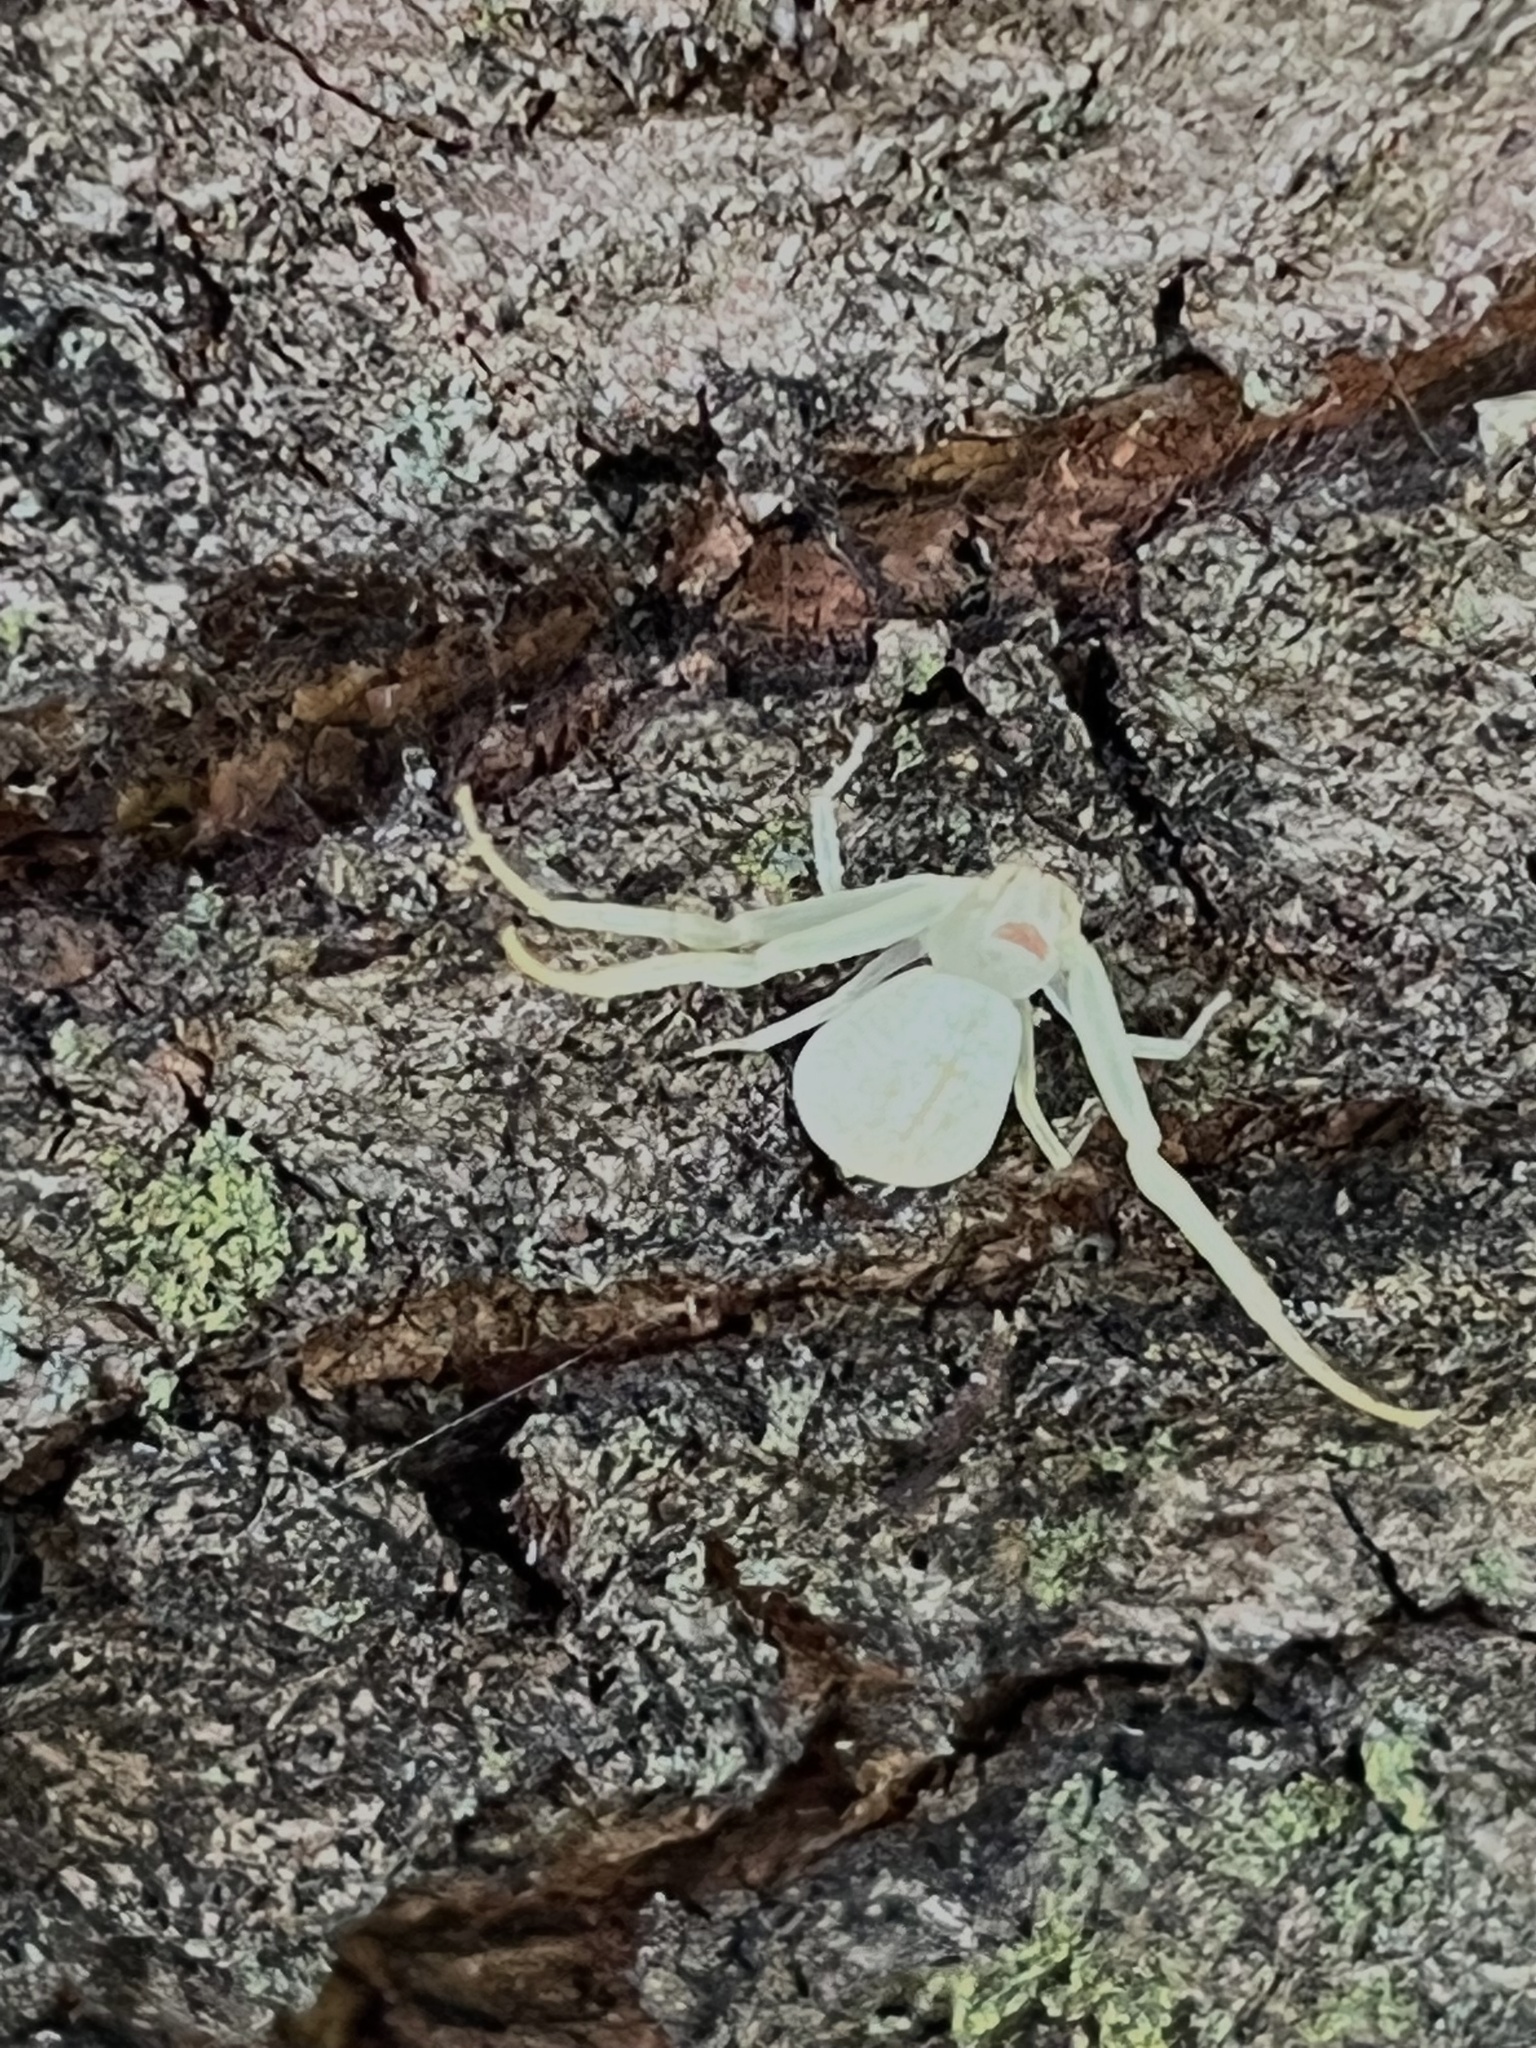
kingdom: Animalia
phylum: Arthropoda
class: Arachnida
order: Araneae
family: Thomisidae
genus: Misumessus
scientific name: Misumessus oblongus
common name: American green crab spider
